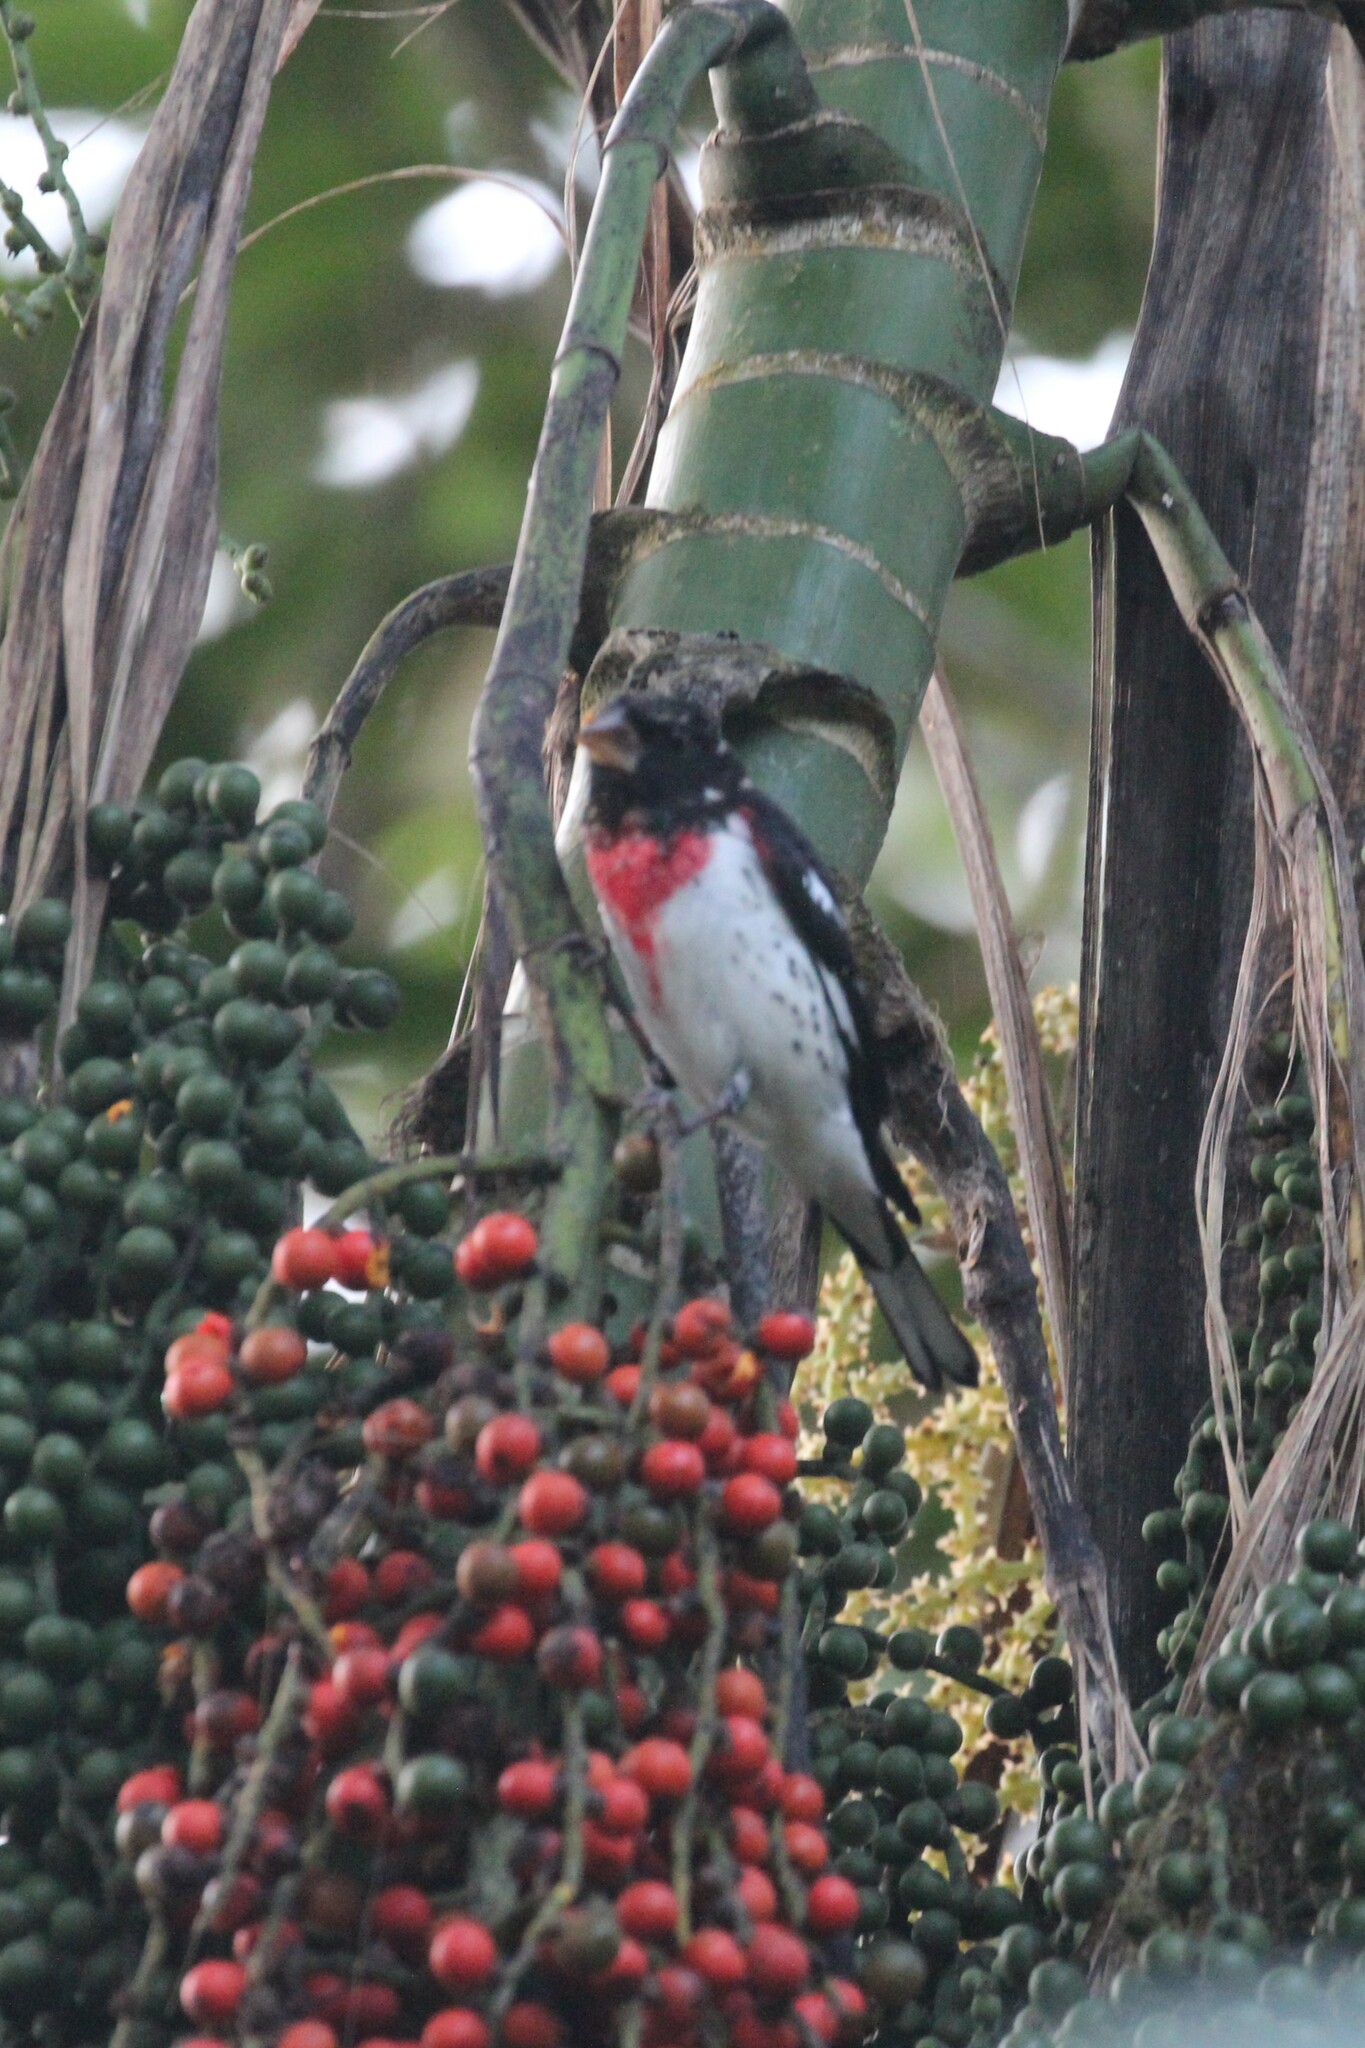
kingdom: Animalia
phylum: Chordata
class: Aves
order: Passeriformes
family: Cardinalidae
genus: Pheucticus
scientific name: Pheucticus ludovicianus
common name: Rose-breasted grosbeak
